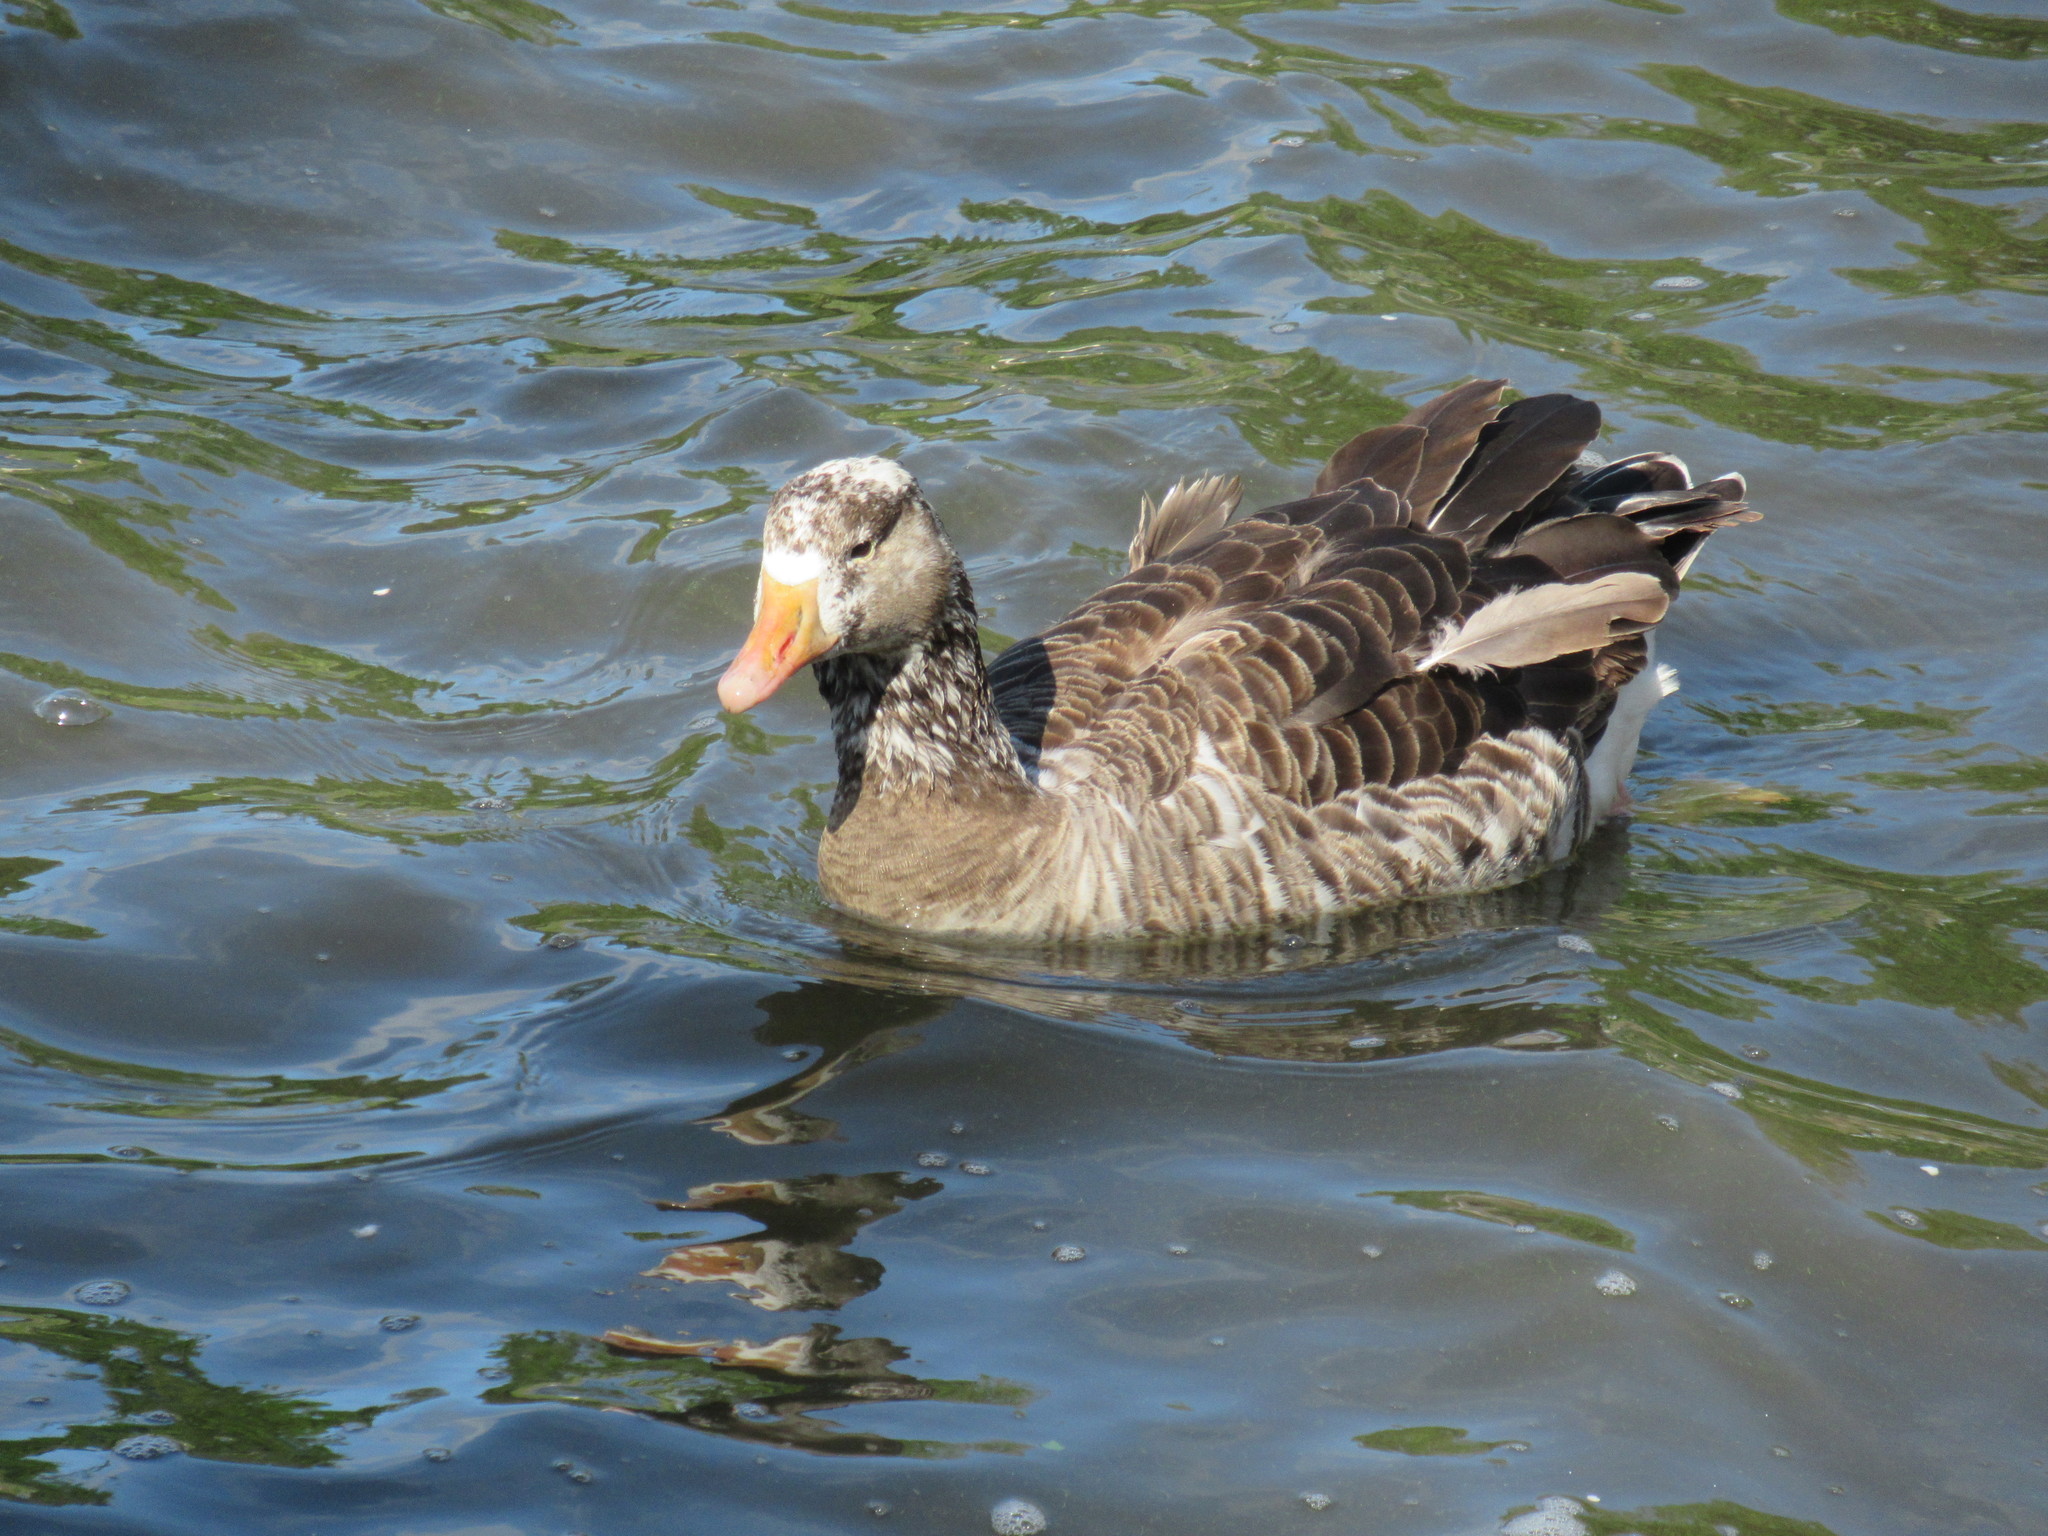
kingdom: Animalia
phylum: Chordata
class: Aves
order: Anseriformes
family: Anatidae
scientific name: Anatidae
